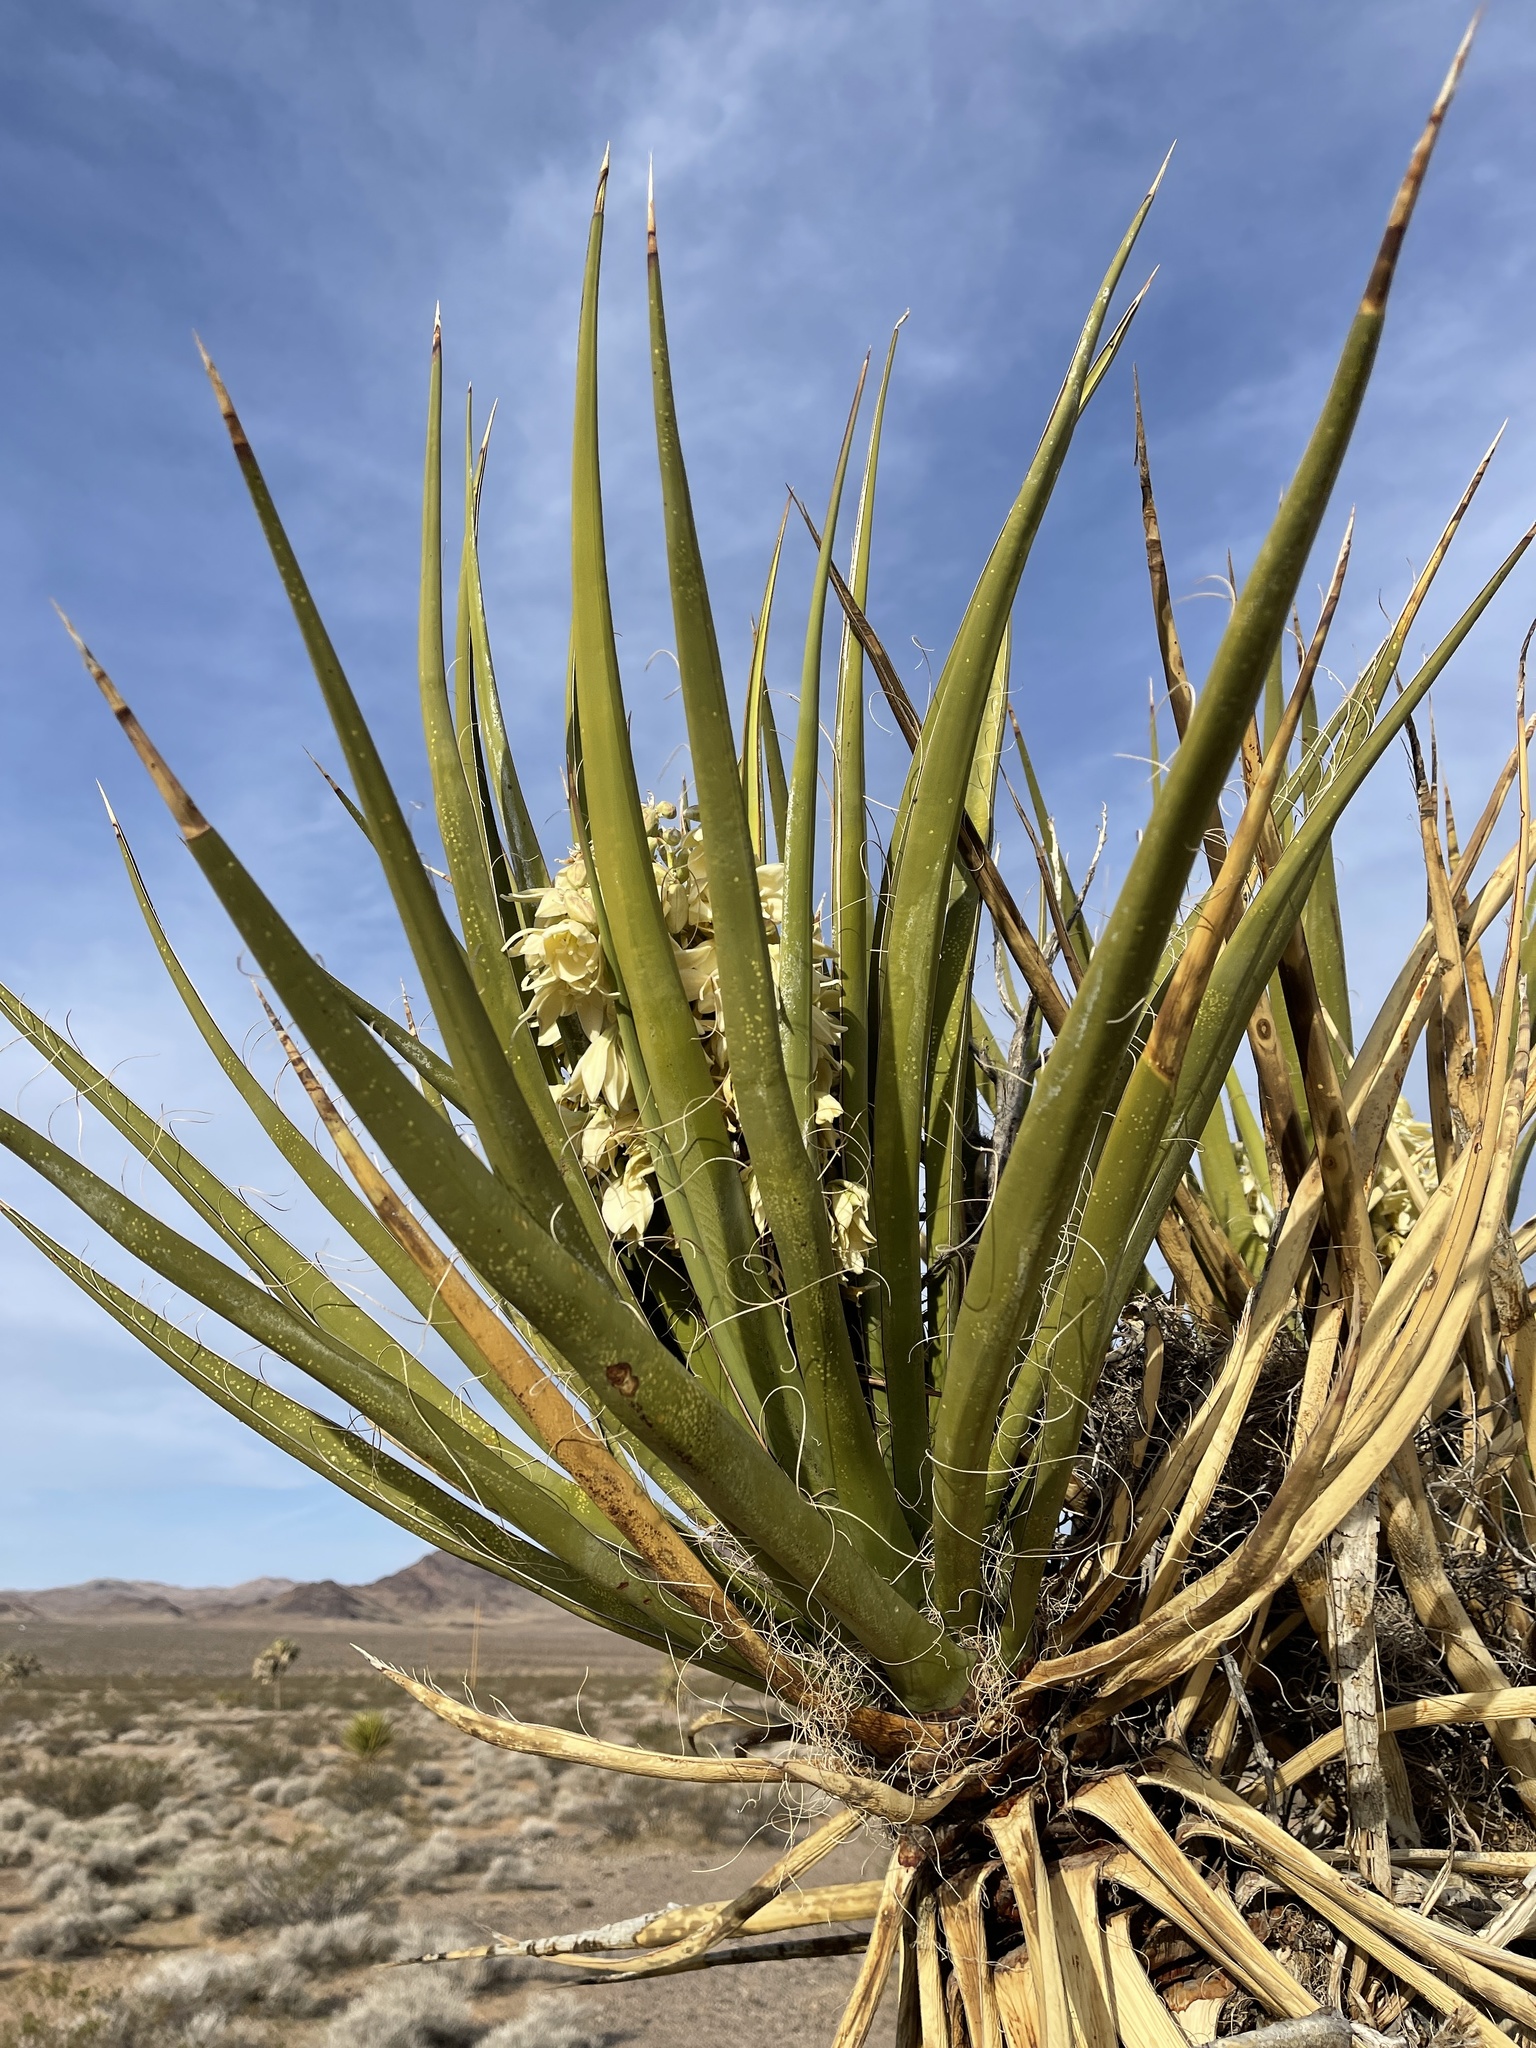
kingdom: Plantae
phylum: Tracheophyta
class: Liliopsida
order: Asparagales
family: Asparagaceae
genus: Yucca
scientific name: Yucca schidigera
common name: Mojave yucca
